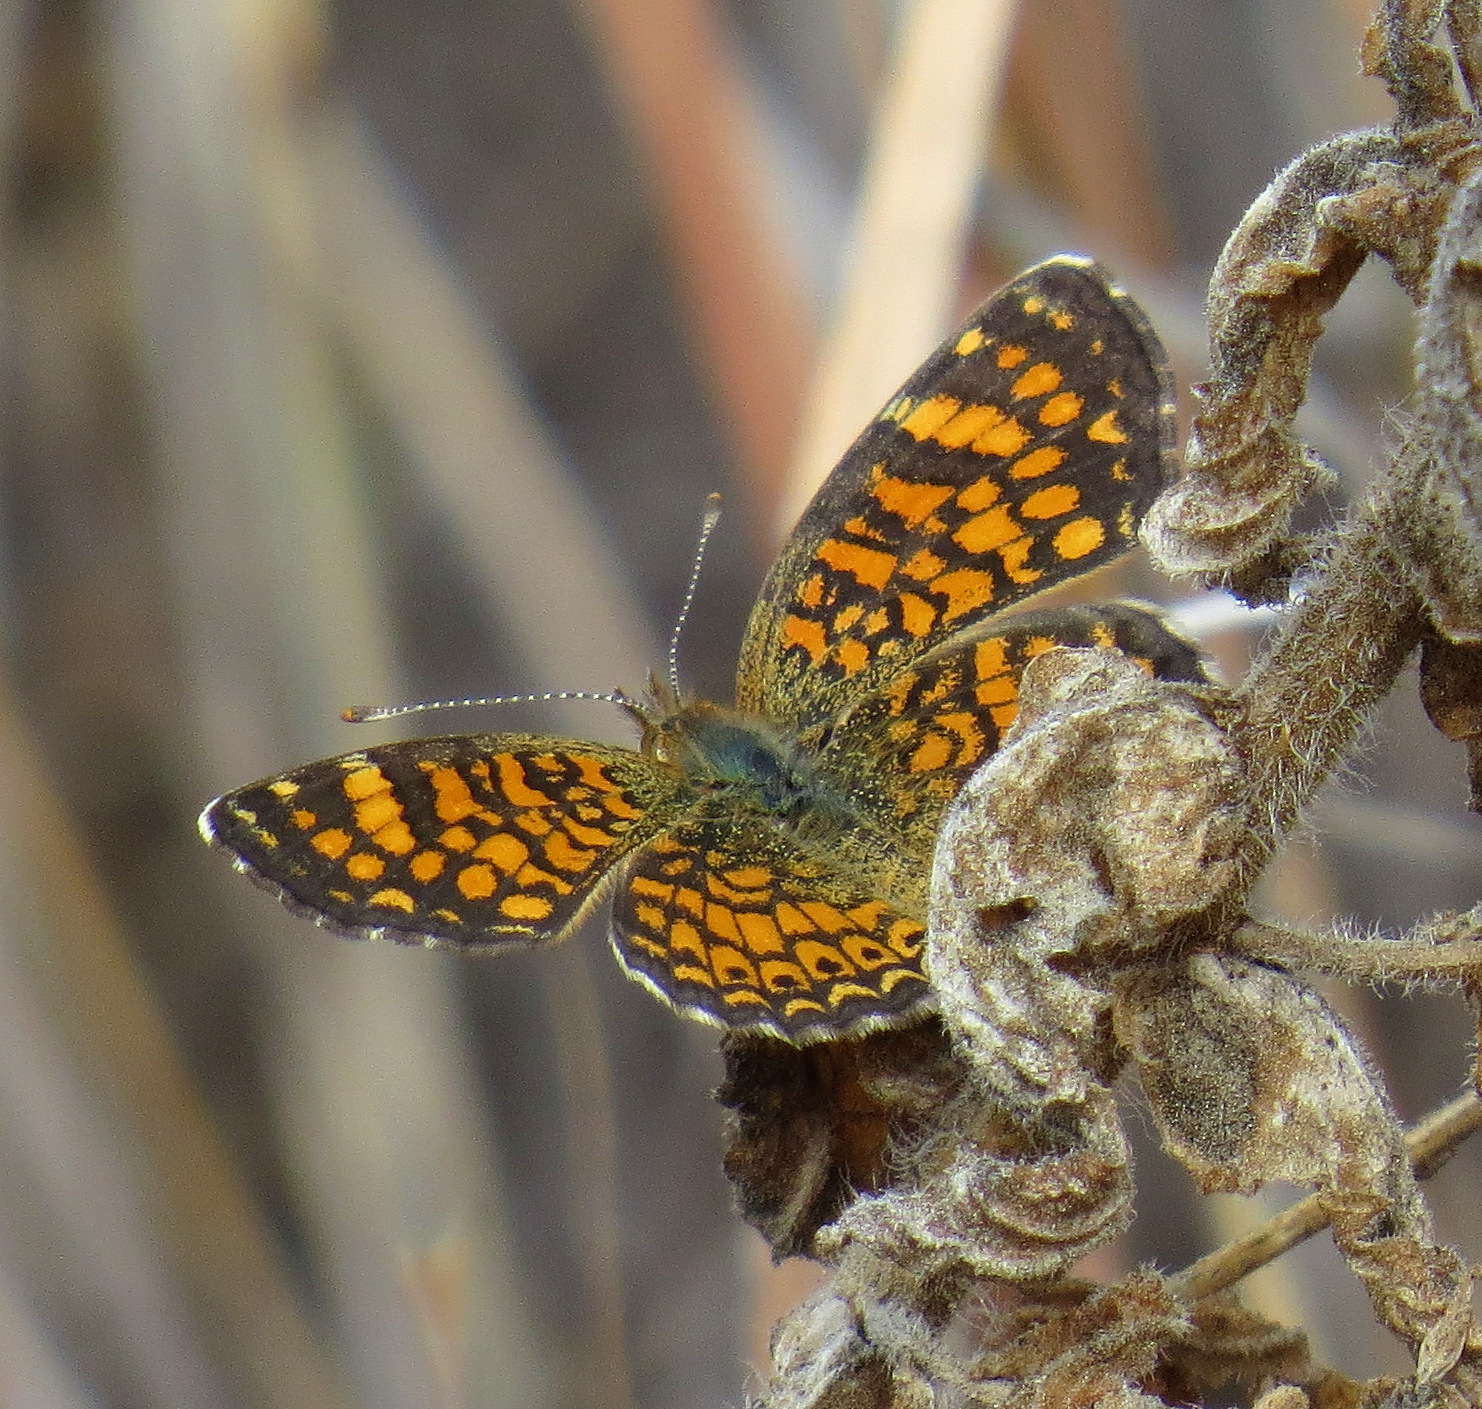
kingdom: Animalia
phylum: Arthropoda
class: Insecta
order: Lepidoptera
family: Nymphalidae
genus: Phyciodes
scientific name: Phyciodes vesta
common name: Vesta crescent
